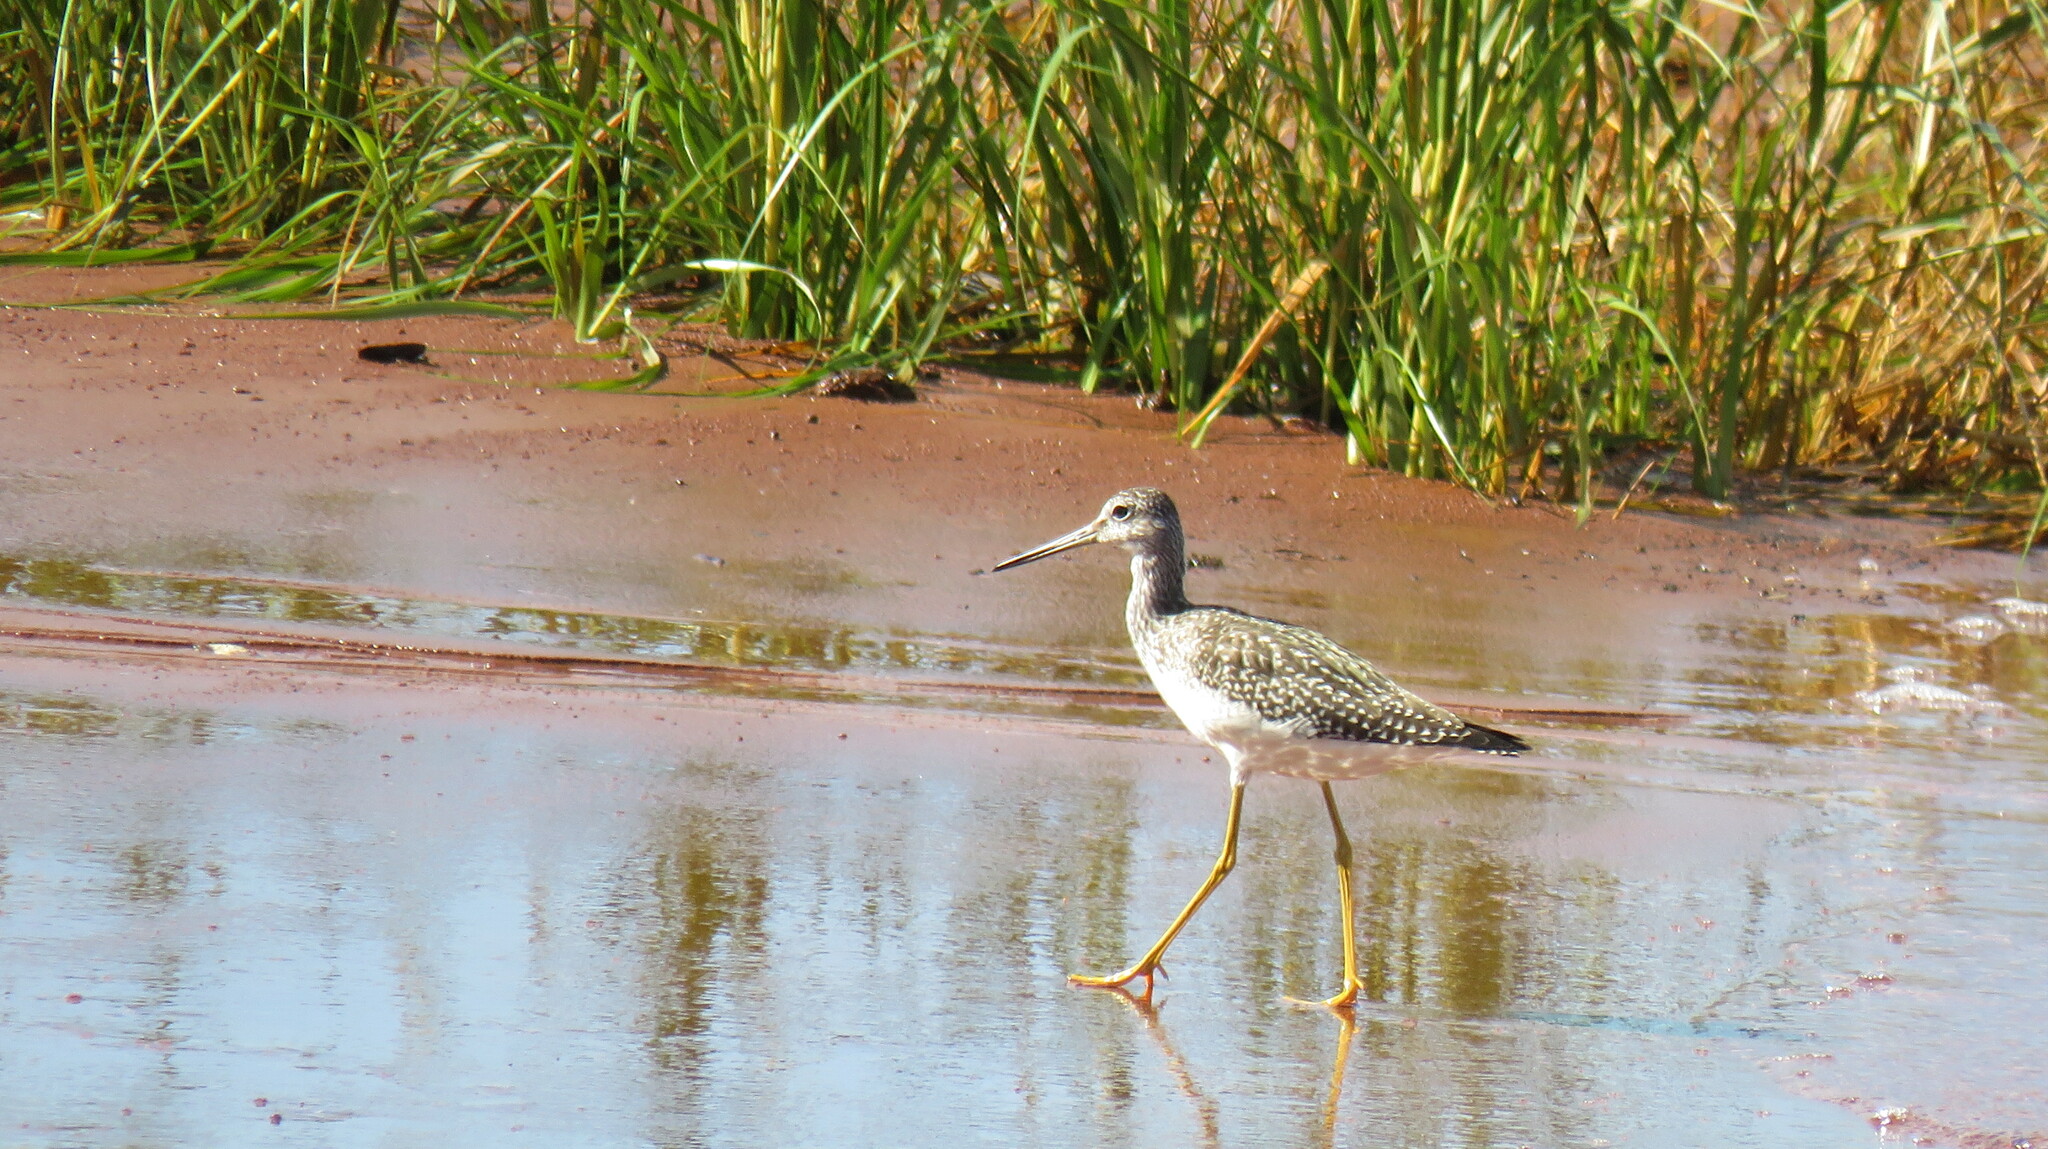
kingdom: Animalia
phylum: Chordata
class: Aves
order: Charadriiformes
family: Scolopacidae
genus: Tringa
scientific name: Tringa melanoleuca
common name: Greater yellowlegs
